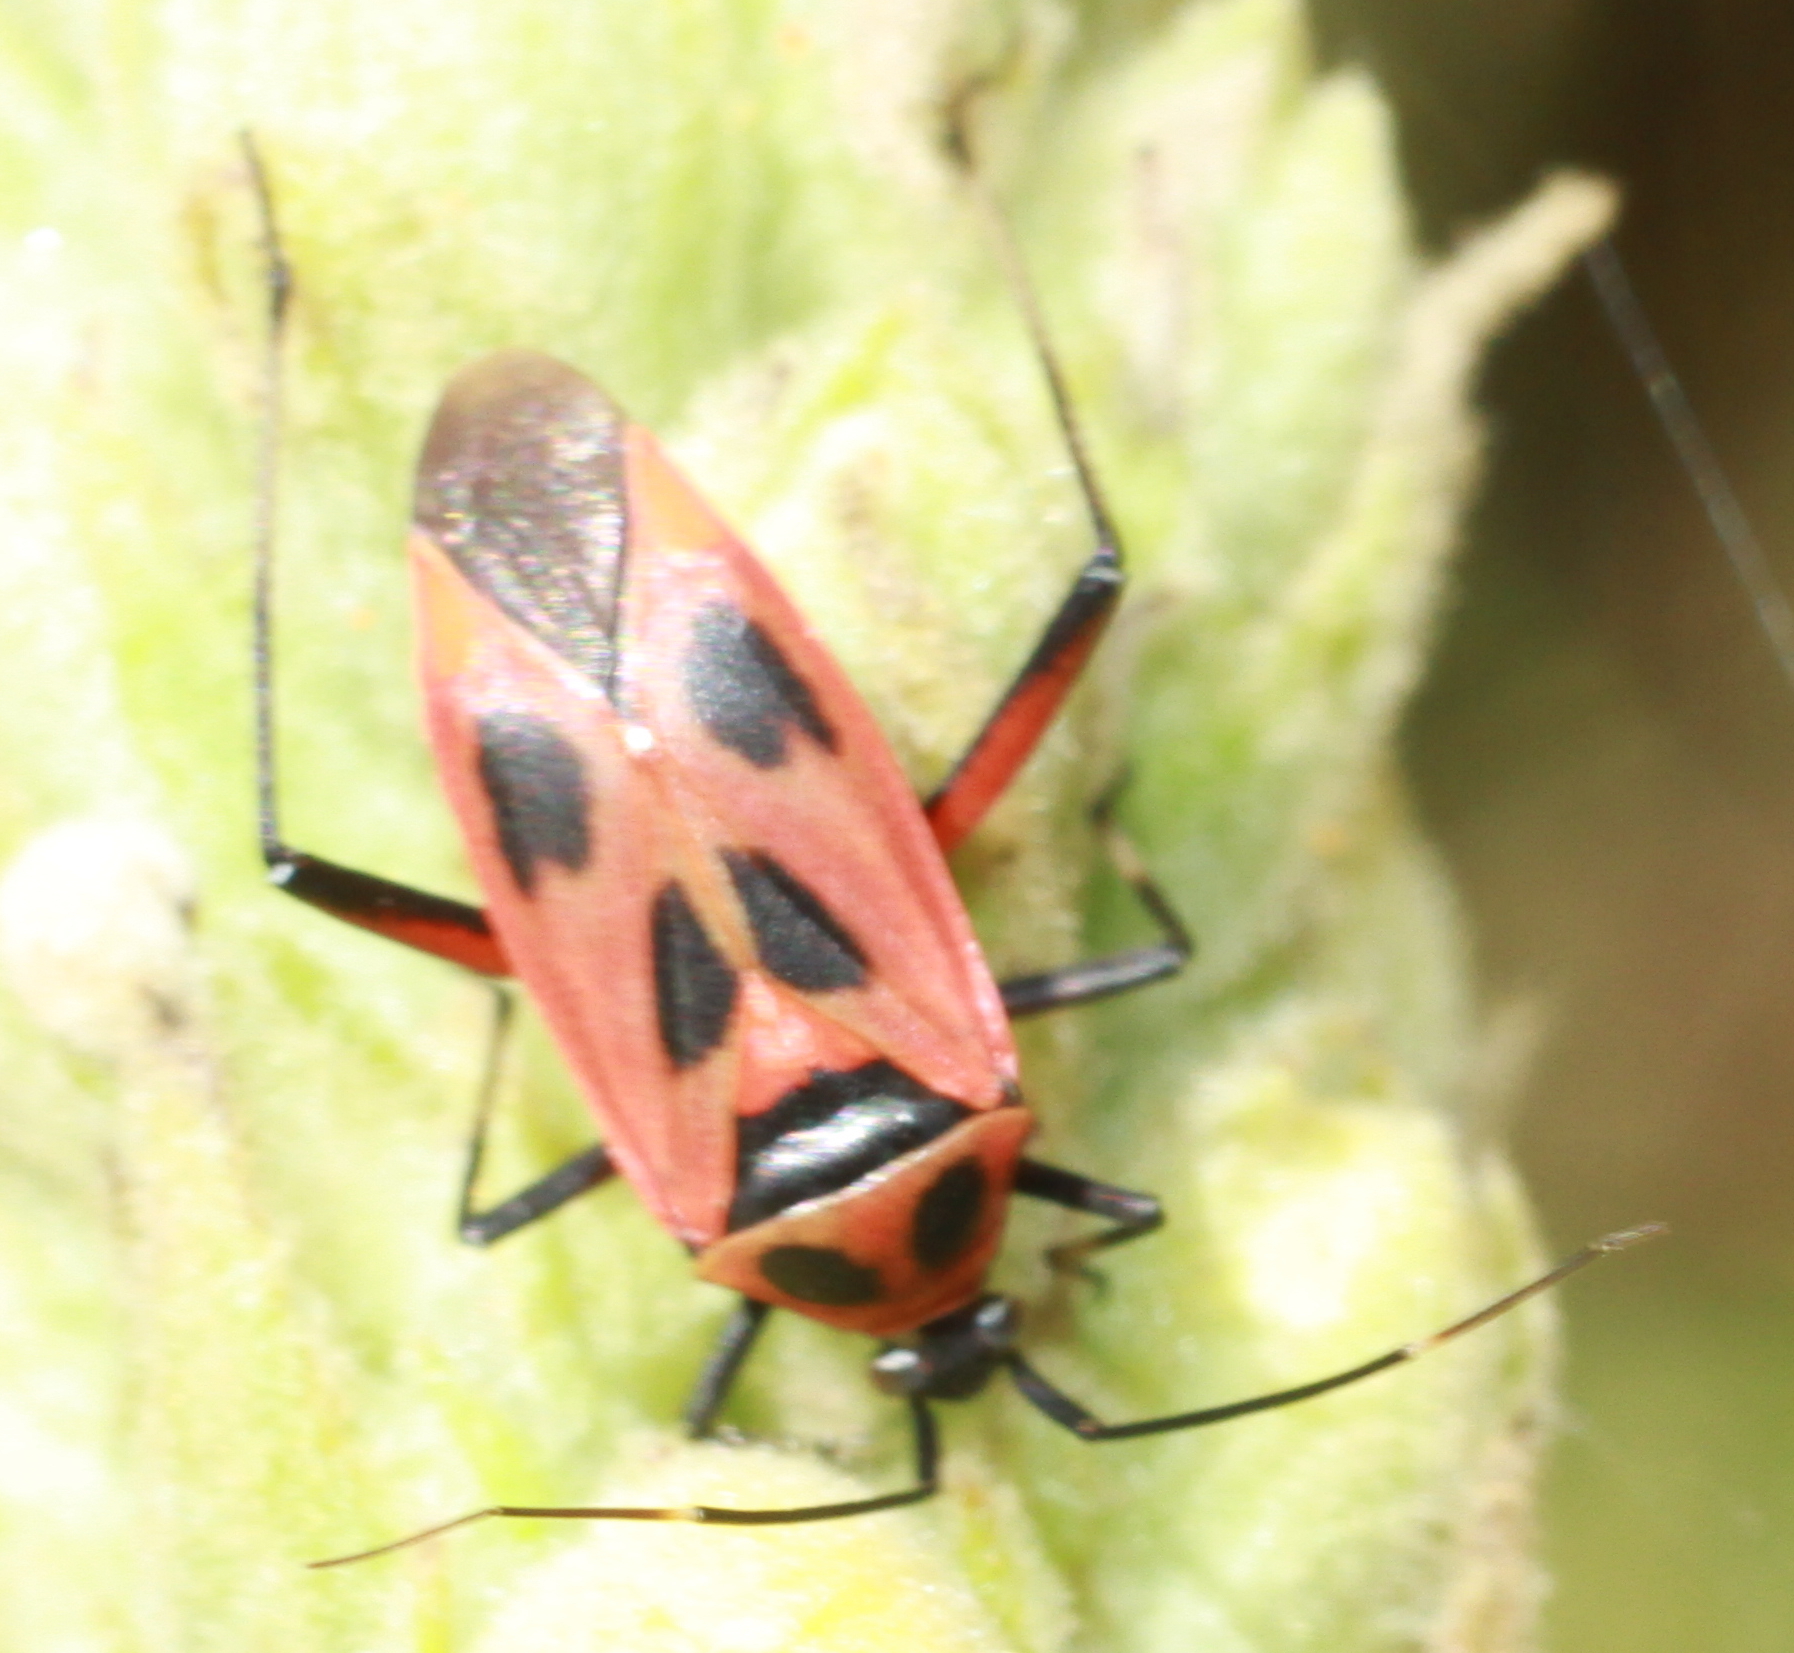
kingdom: Animalia
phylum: Arthropoda
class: Insecta
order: Hemiptera
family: Miridae
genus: Calocoris
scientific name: Calocoris nemoralis
